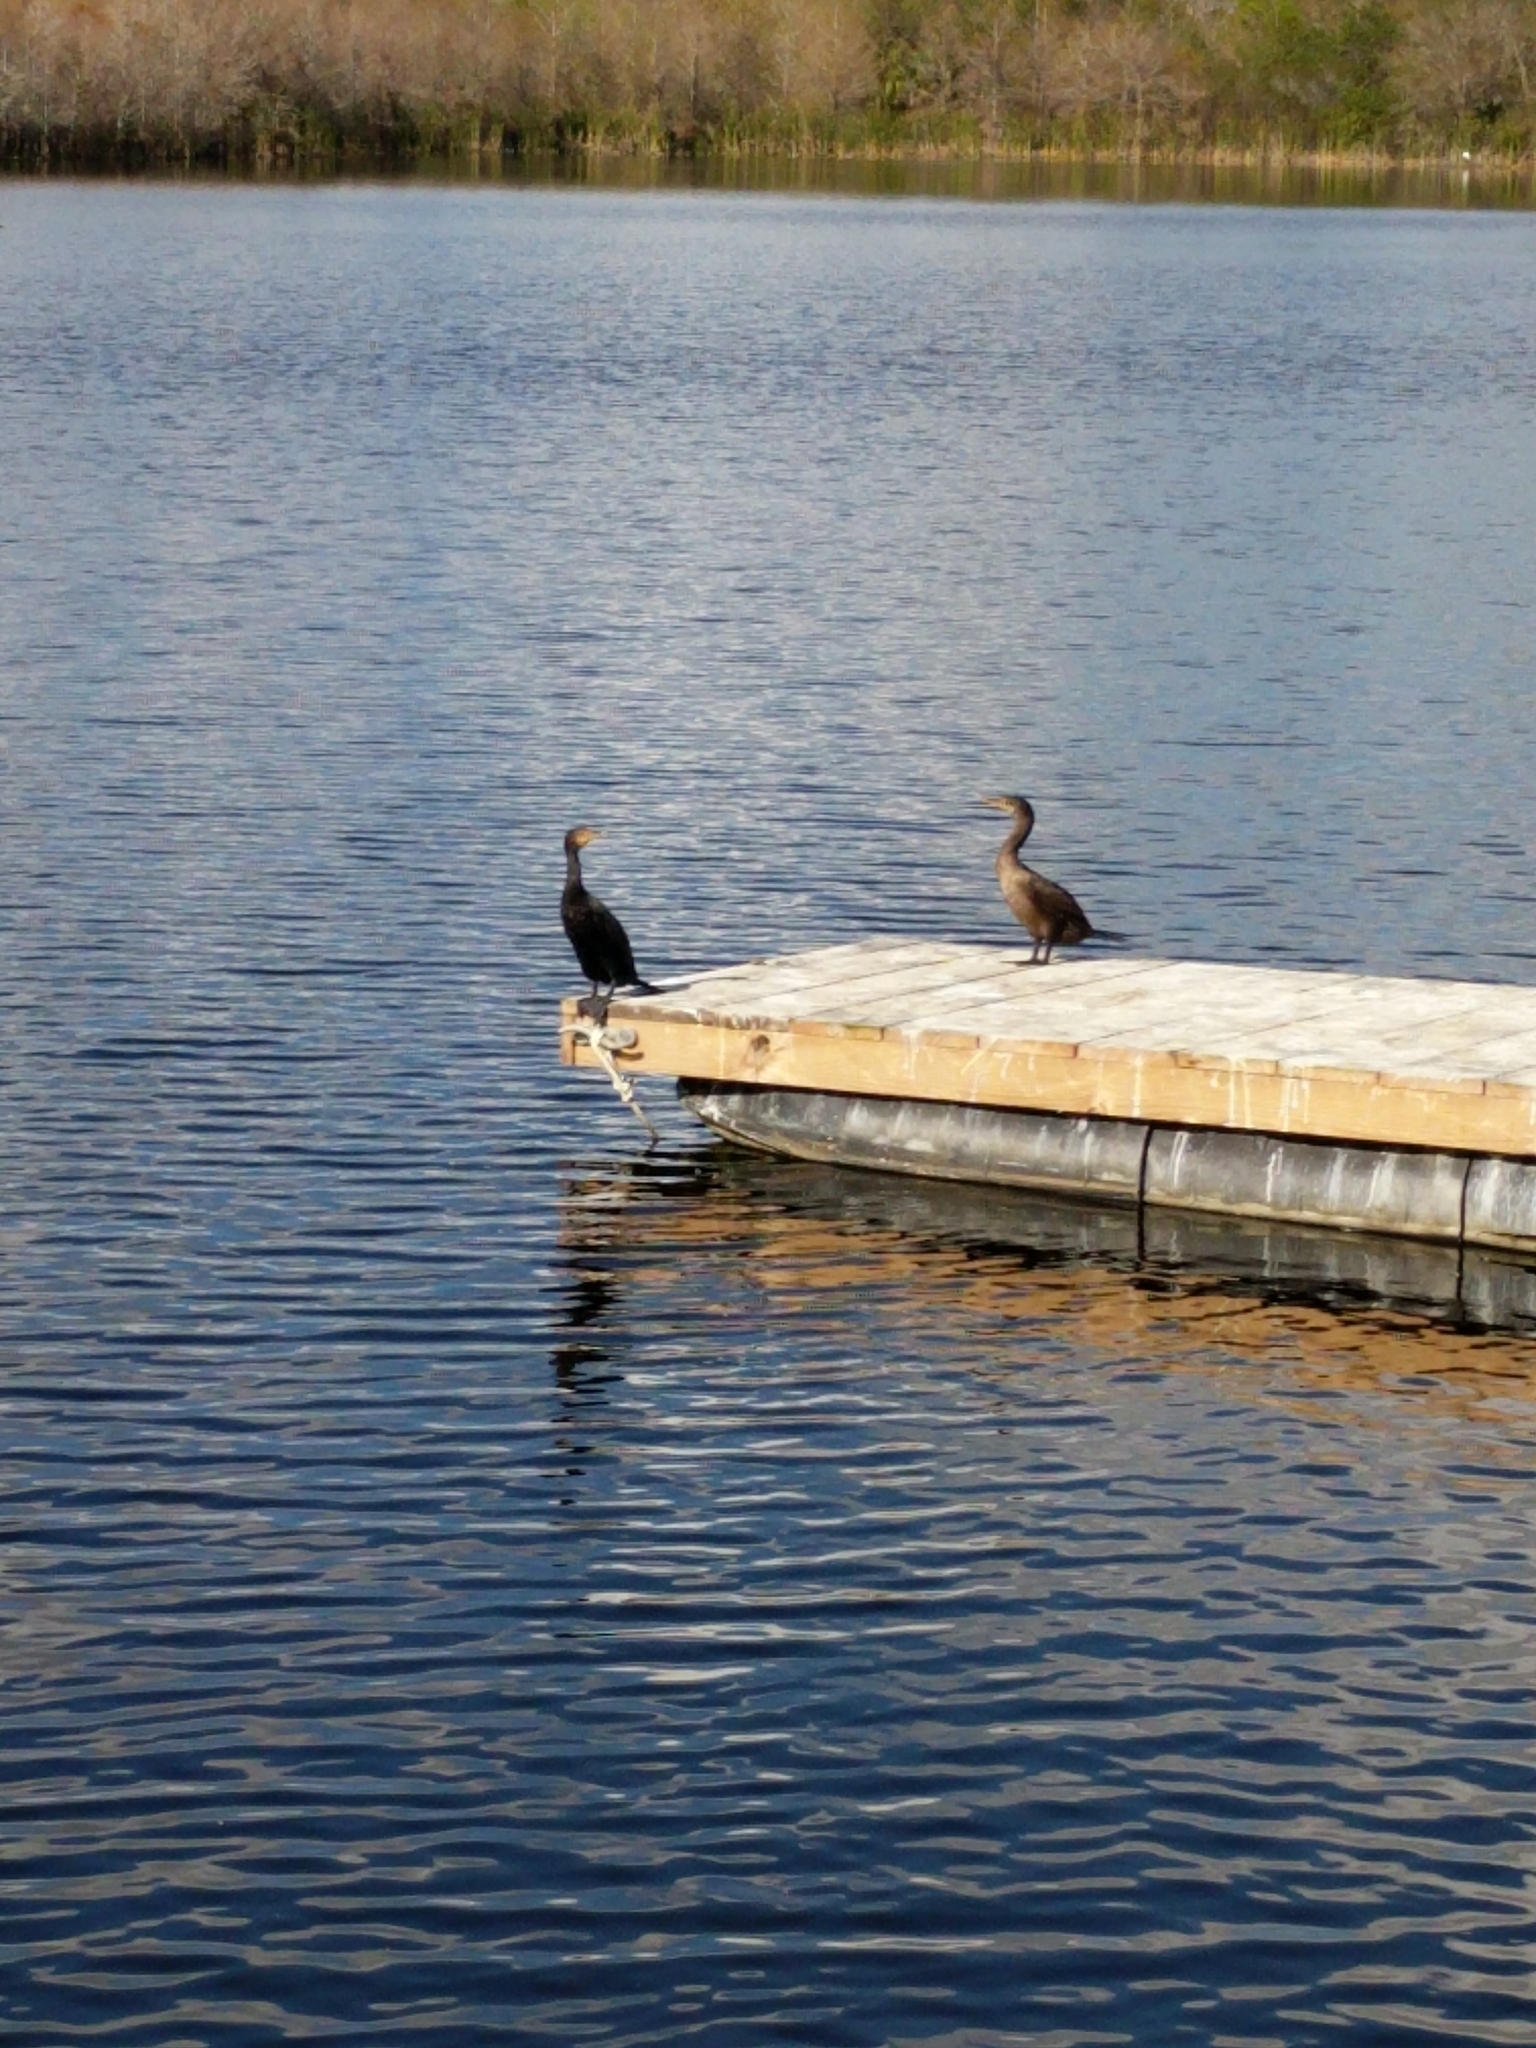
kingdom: Animalia
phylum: Chordata
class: Aves
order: Suliformes
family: Phalacrocoracidae
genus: Phalacrocorax
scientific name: Phalacrocorax auritus
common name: Double-crested cormorant
